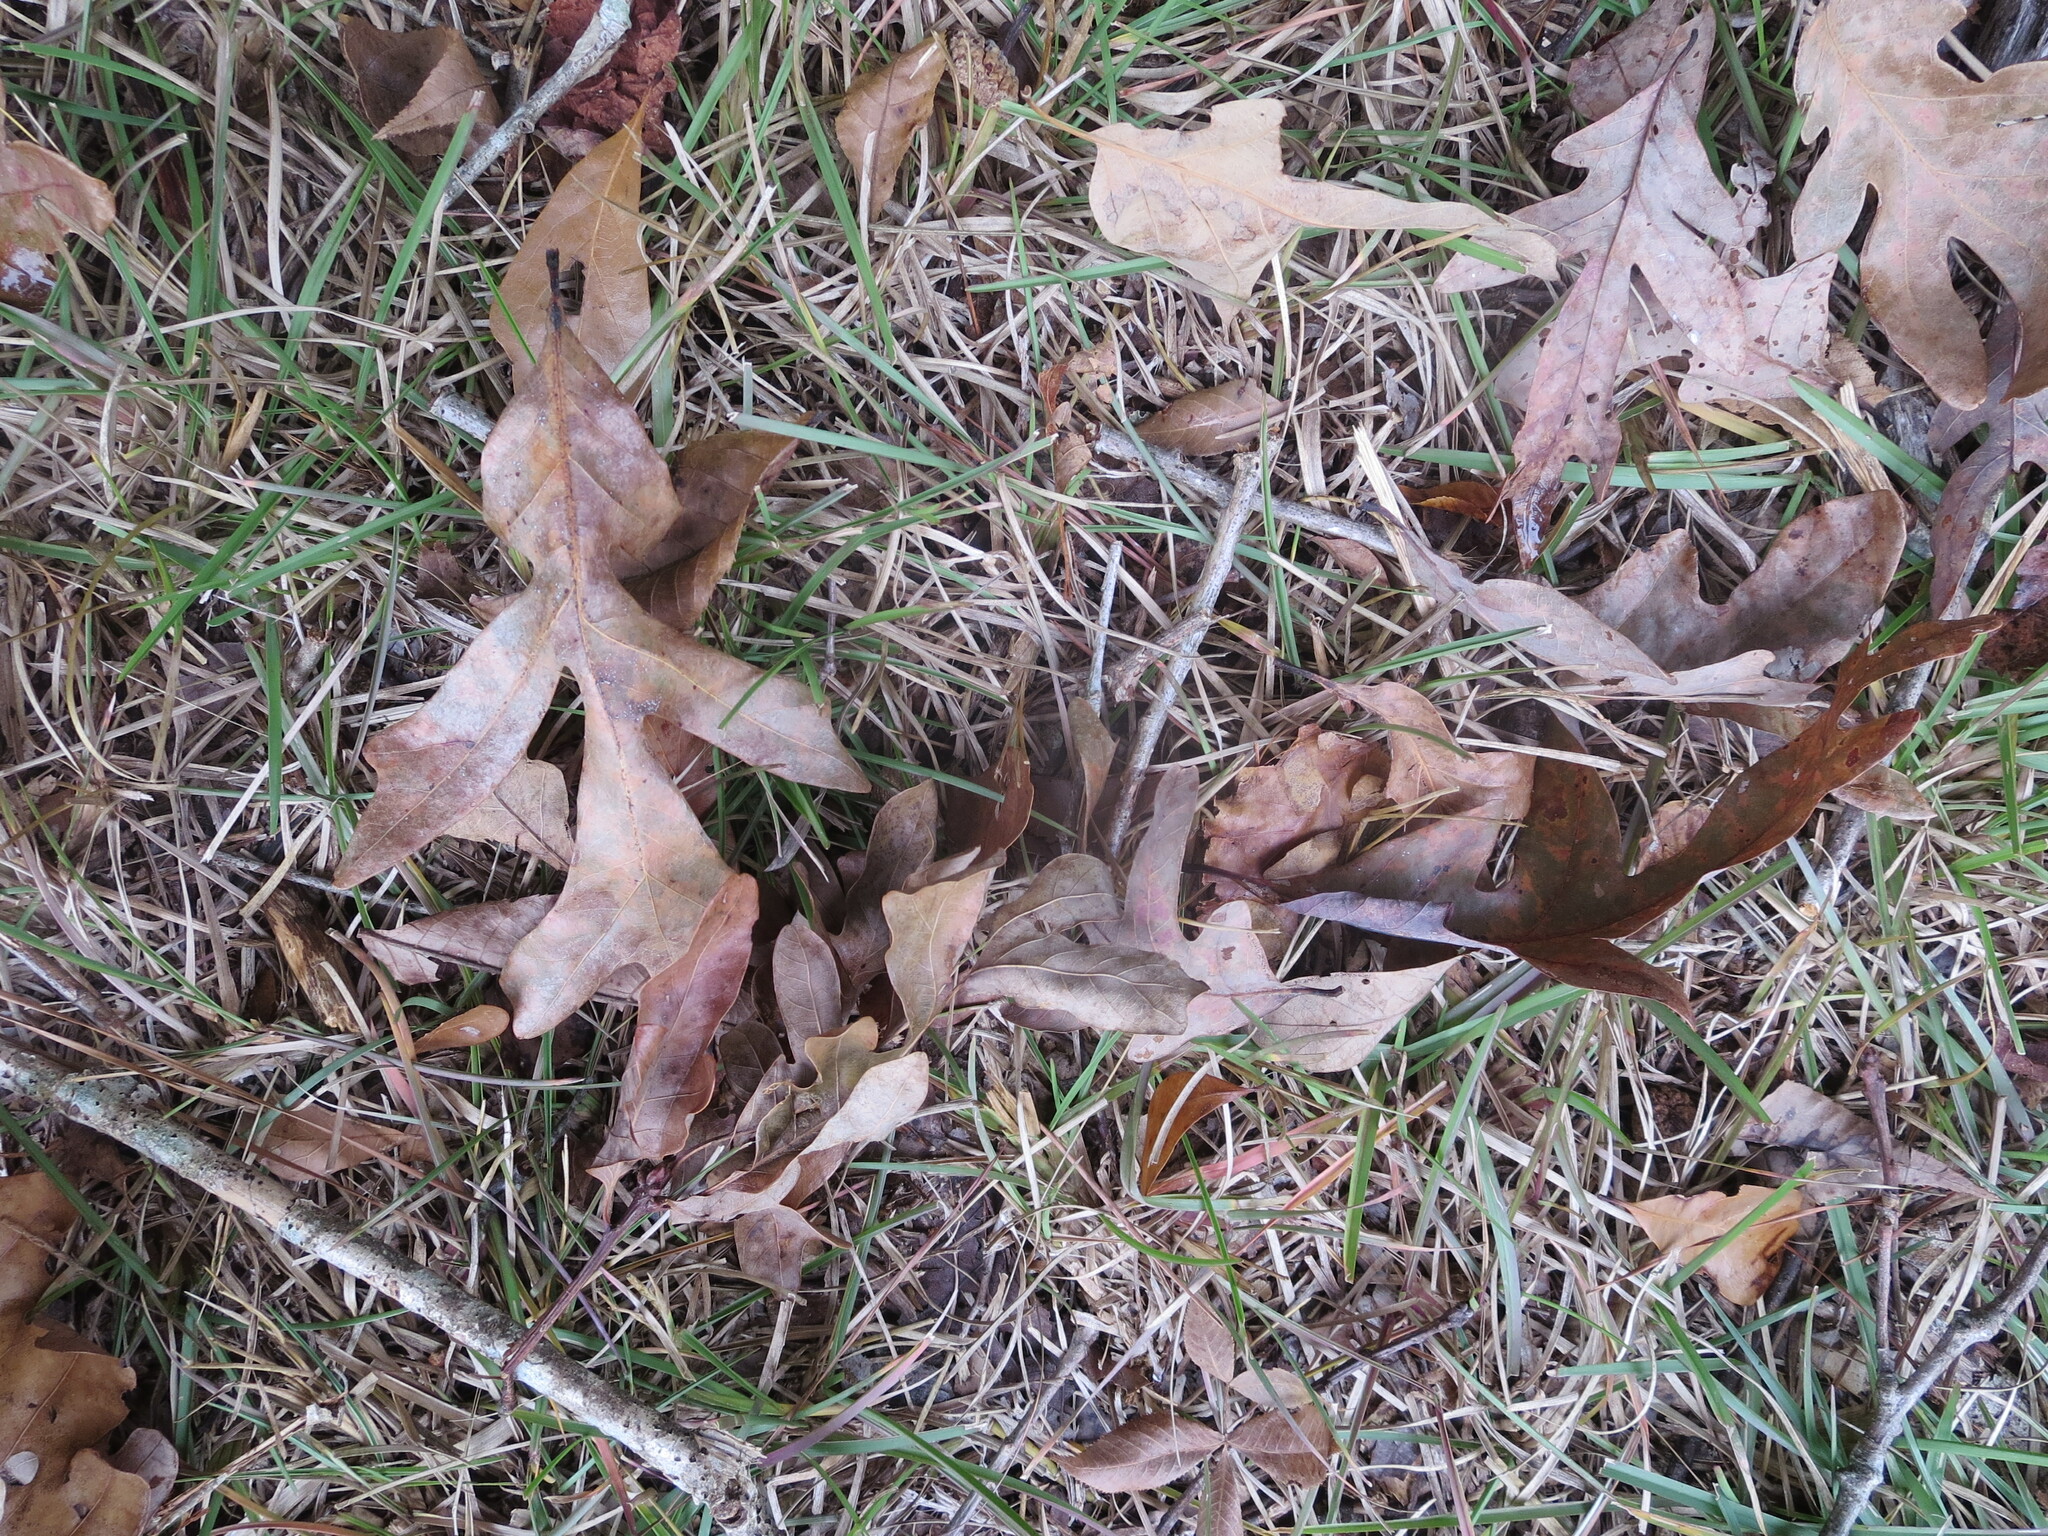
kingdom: Plantae
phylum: Tracheophyta
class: Magnoliopsida
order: Fagales
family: Fagaceae
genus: Quercus
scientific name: Quercus alba
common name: White oak
